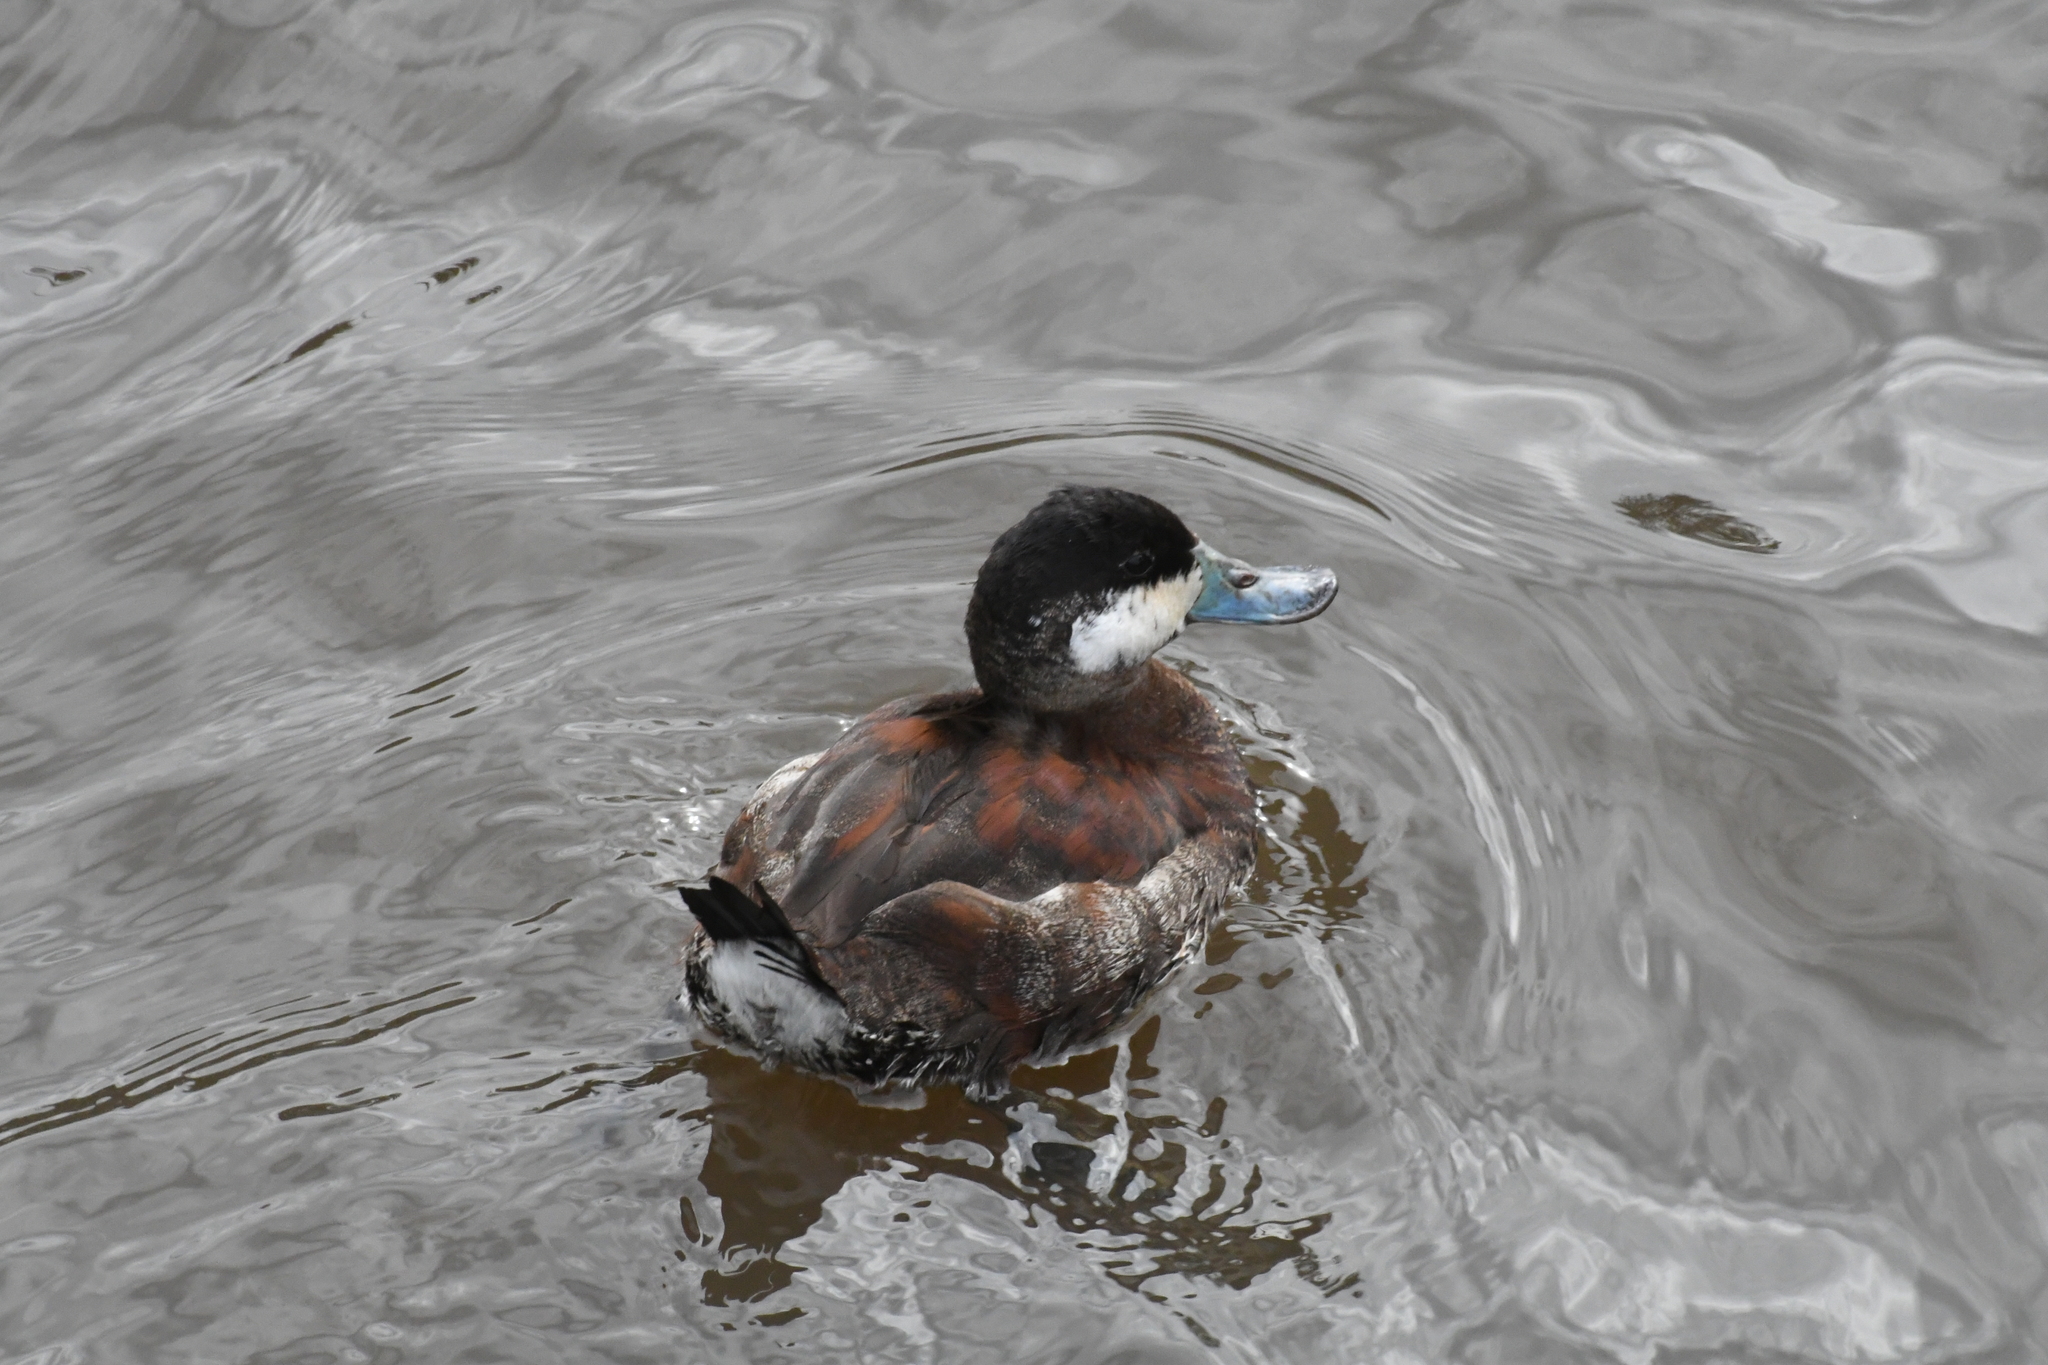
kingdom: Animalia
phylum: Chordata
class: Aves
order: Anseriformes
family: Anatidae
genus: Oxyura
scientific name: Oxyura jamaicensis
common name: Ruddy duck
